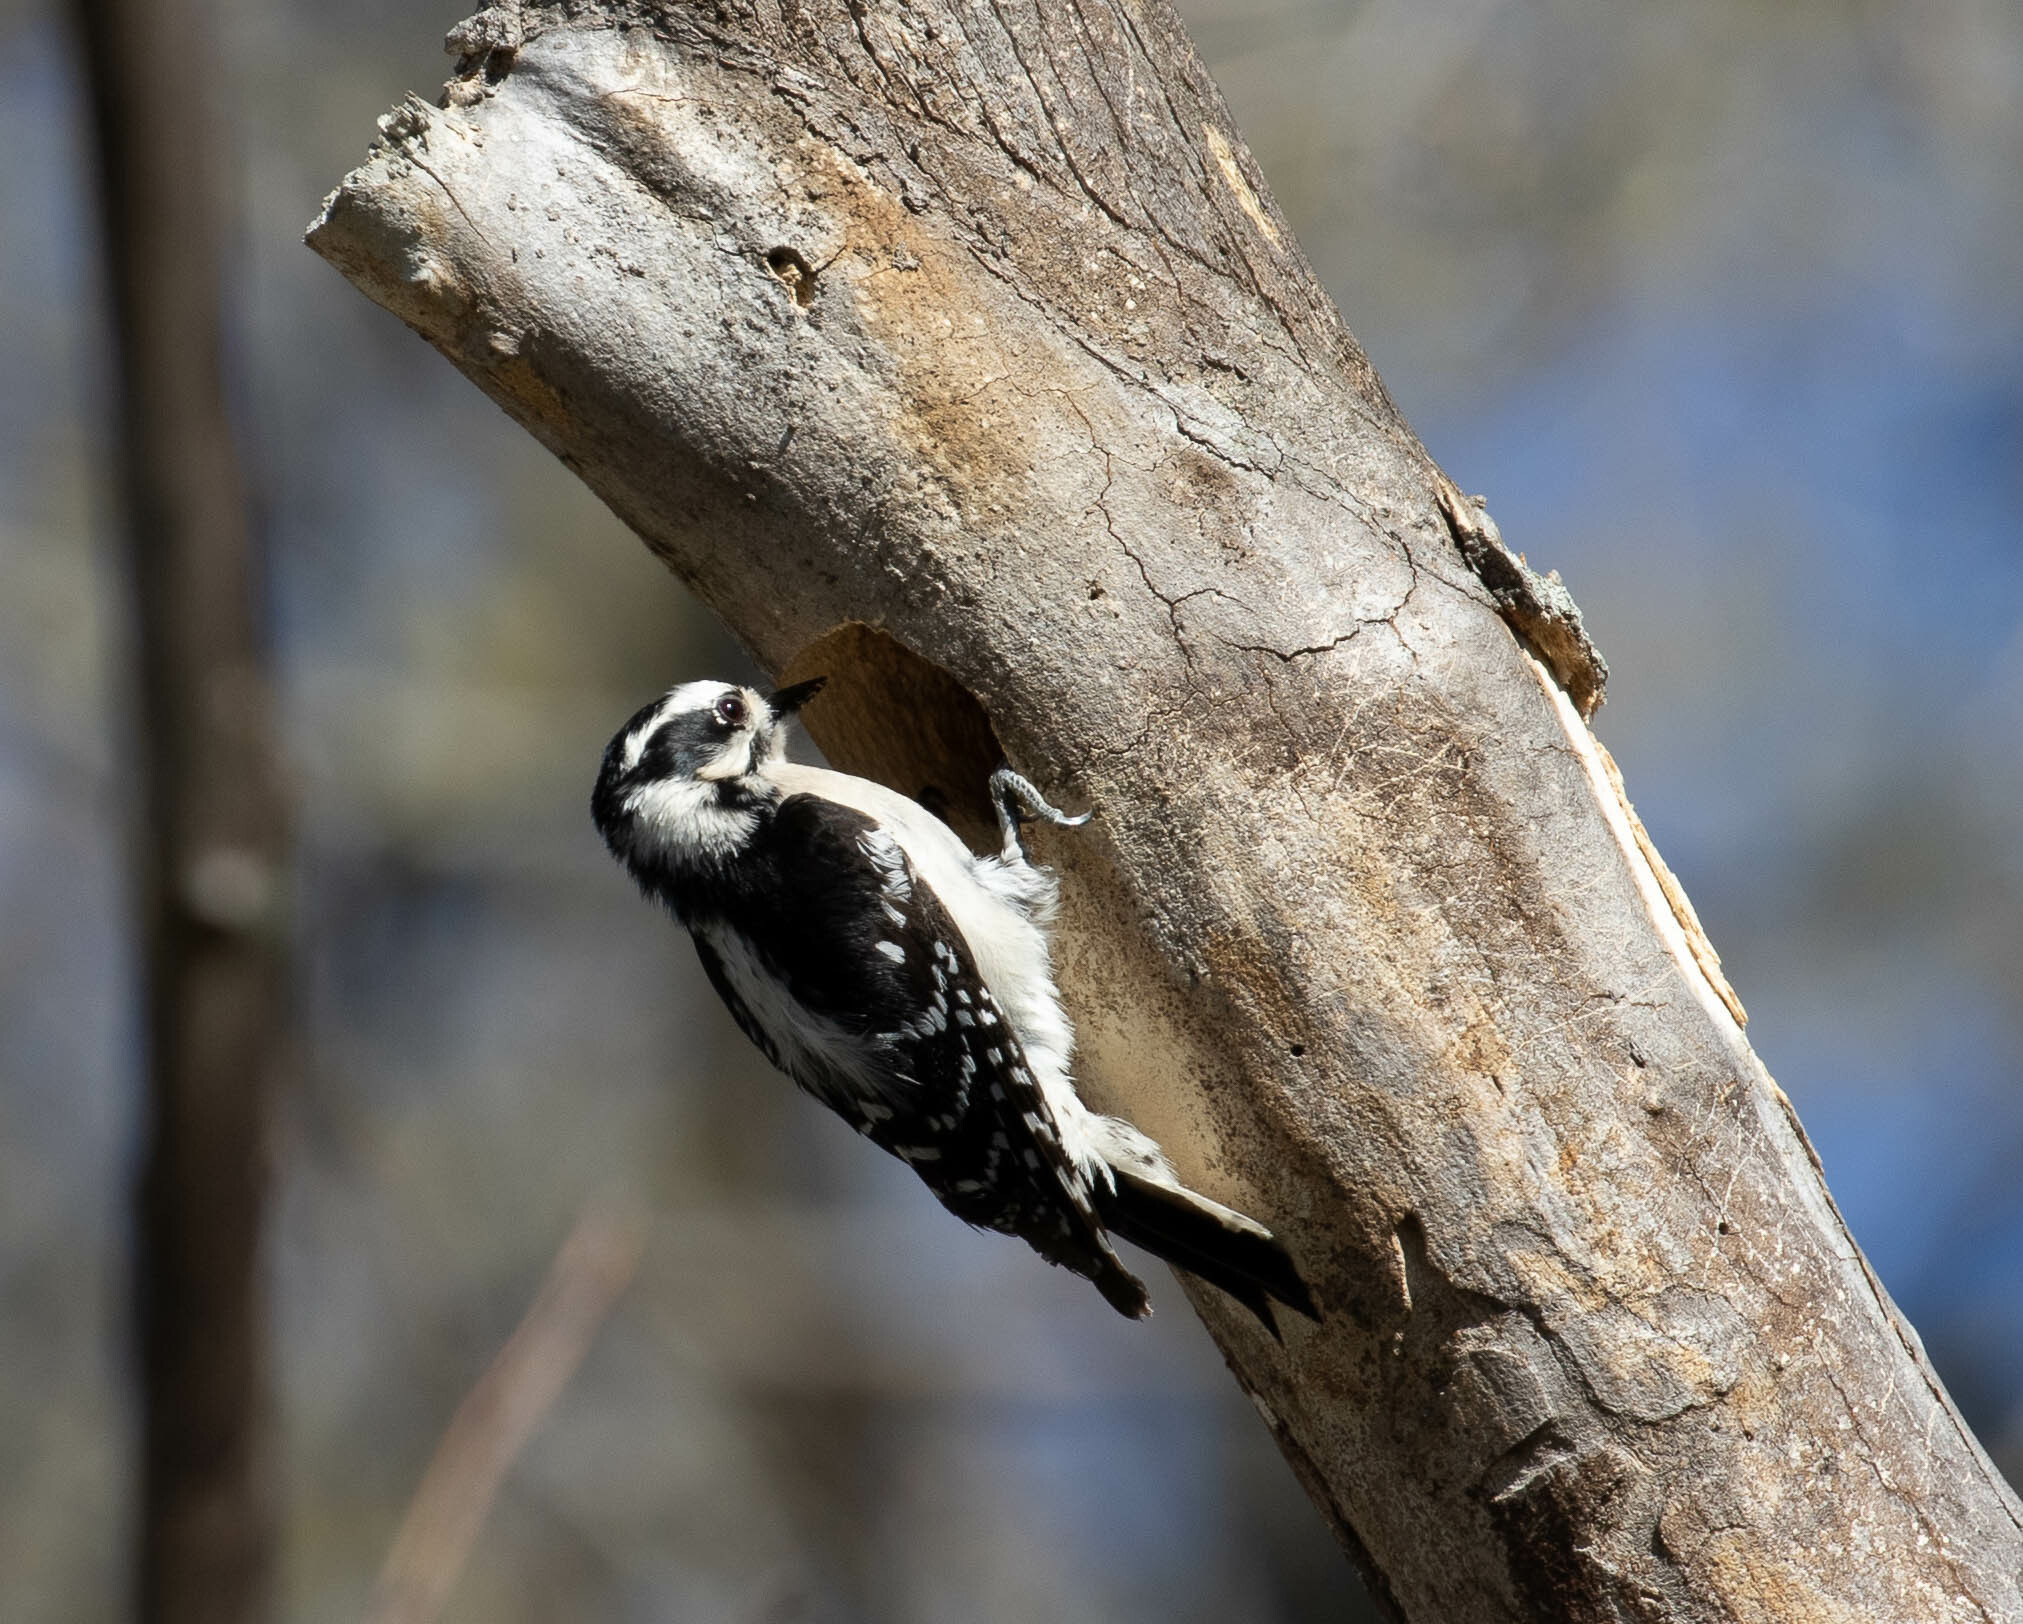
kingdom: Animalia
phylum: Chordata
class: Aves
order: Piciformes
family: Picidae
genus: Dryobates
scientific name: Dryobates pubescens
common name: Downy woodpecker
